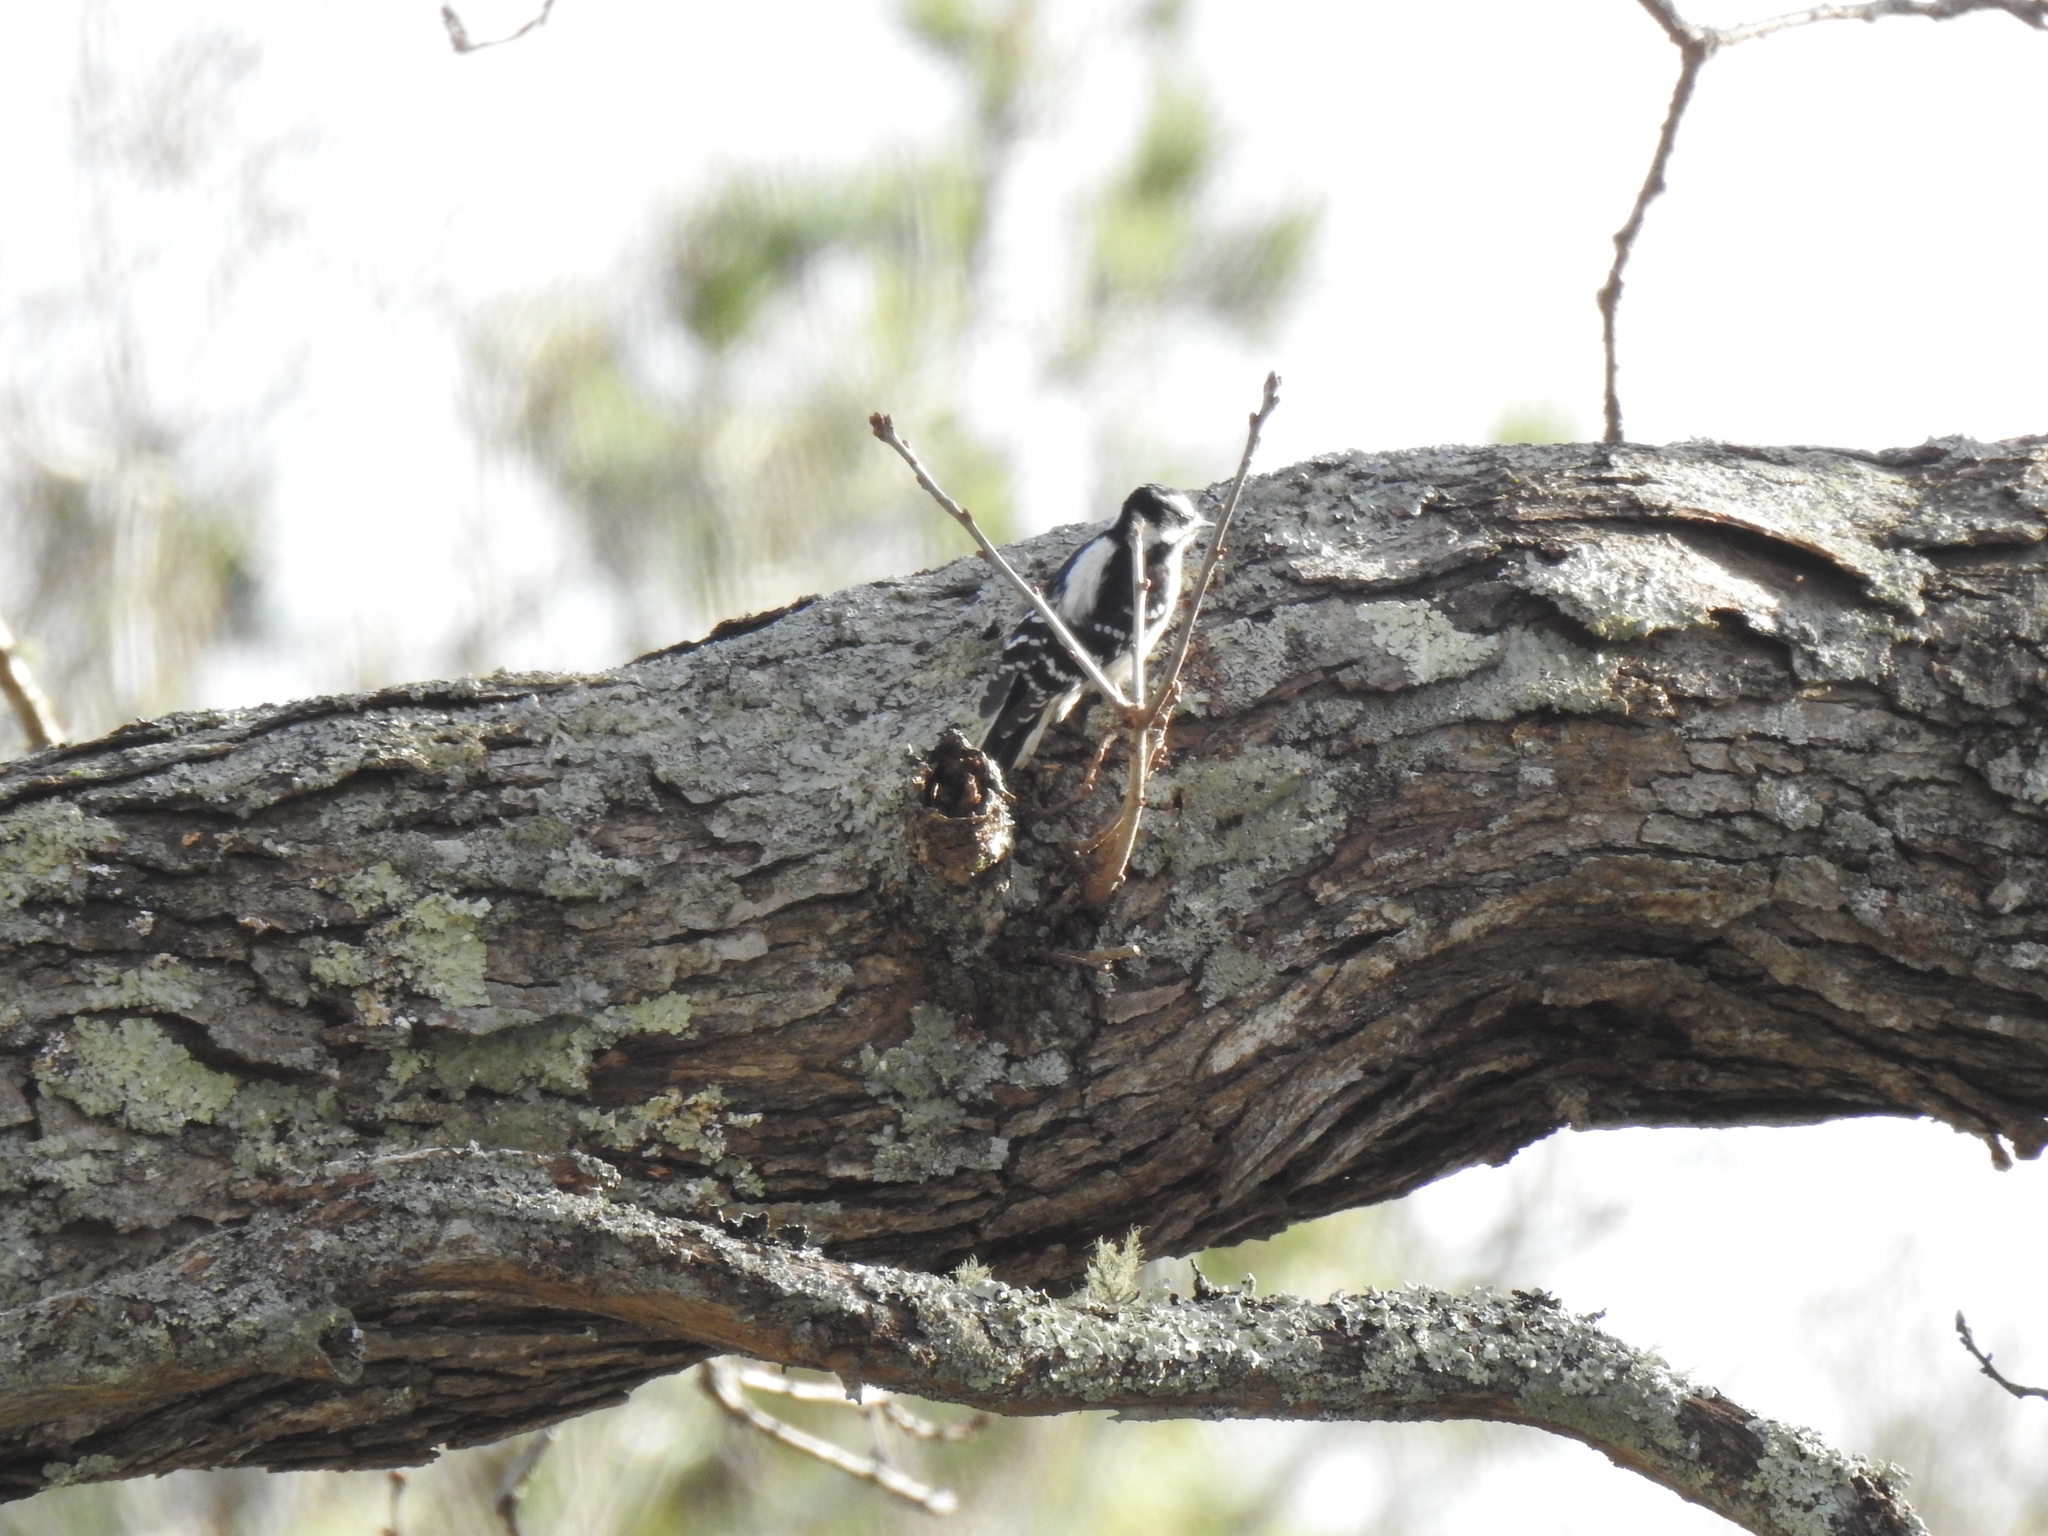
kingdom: Animalia
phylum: Chordata
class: Aves
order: Piciformes
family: Picidae
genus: Dryobates
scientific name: Dryobates pubescens
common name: Downy woodpecker
